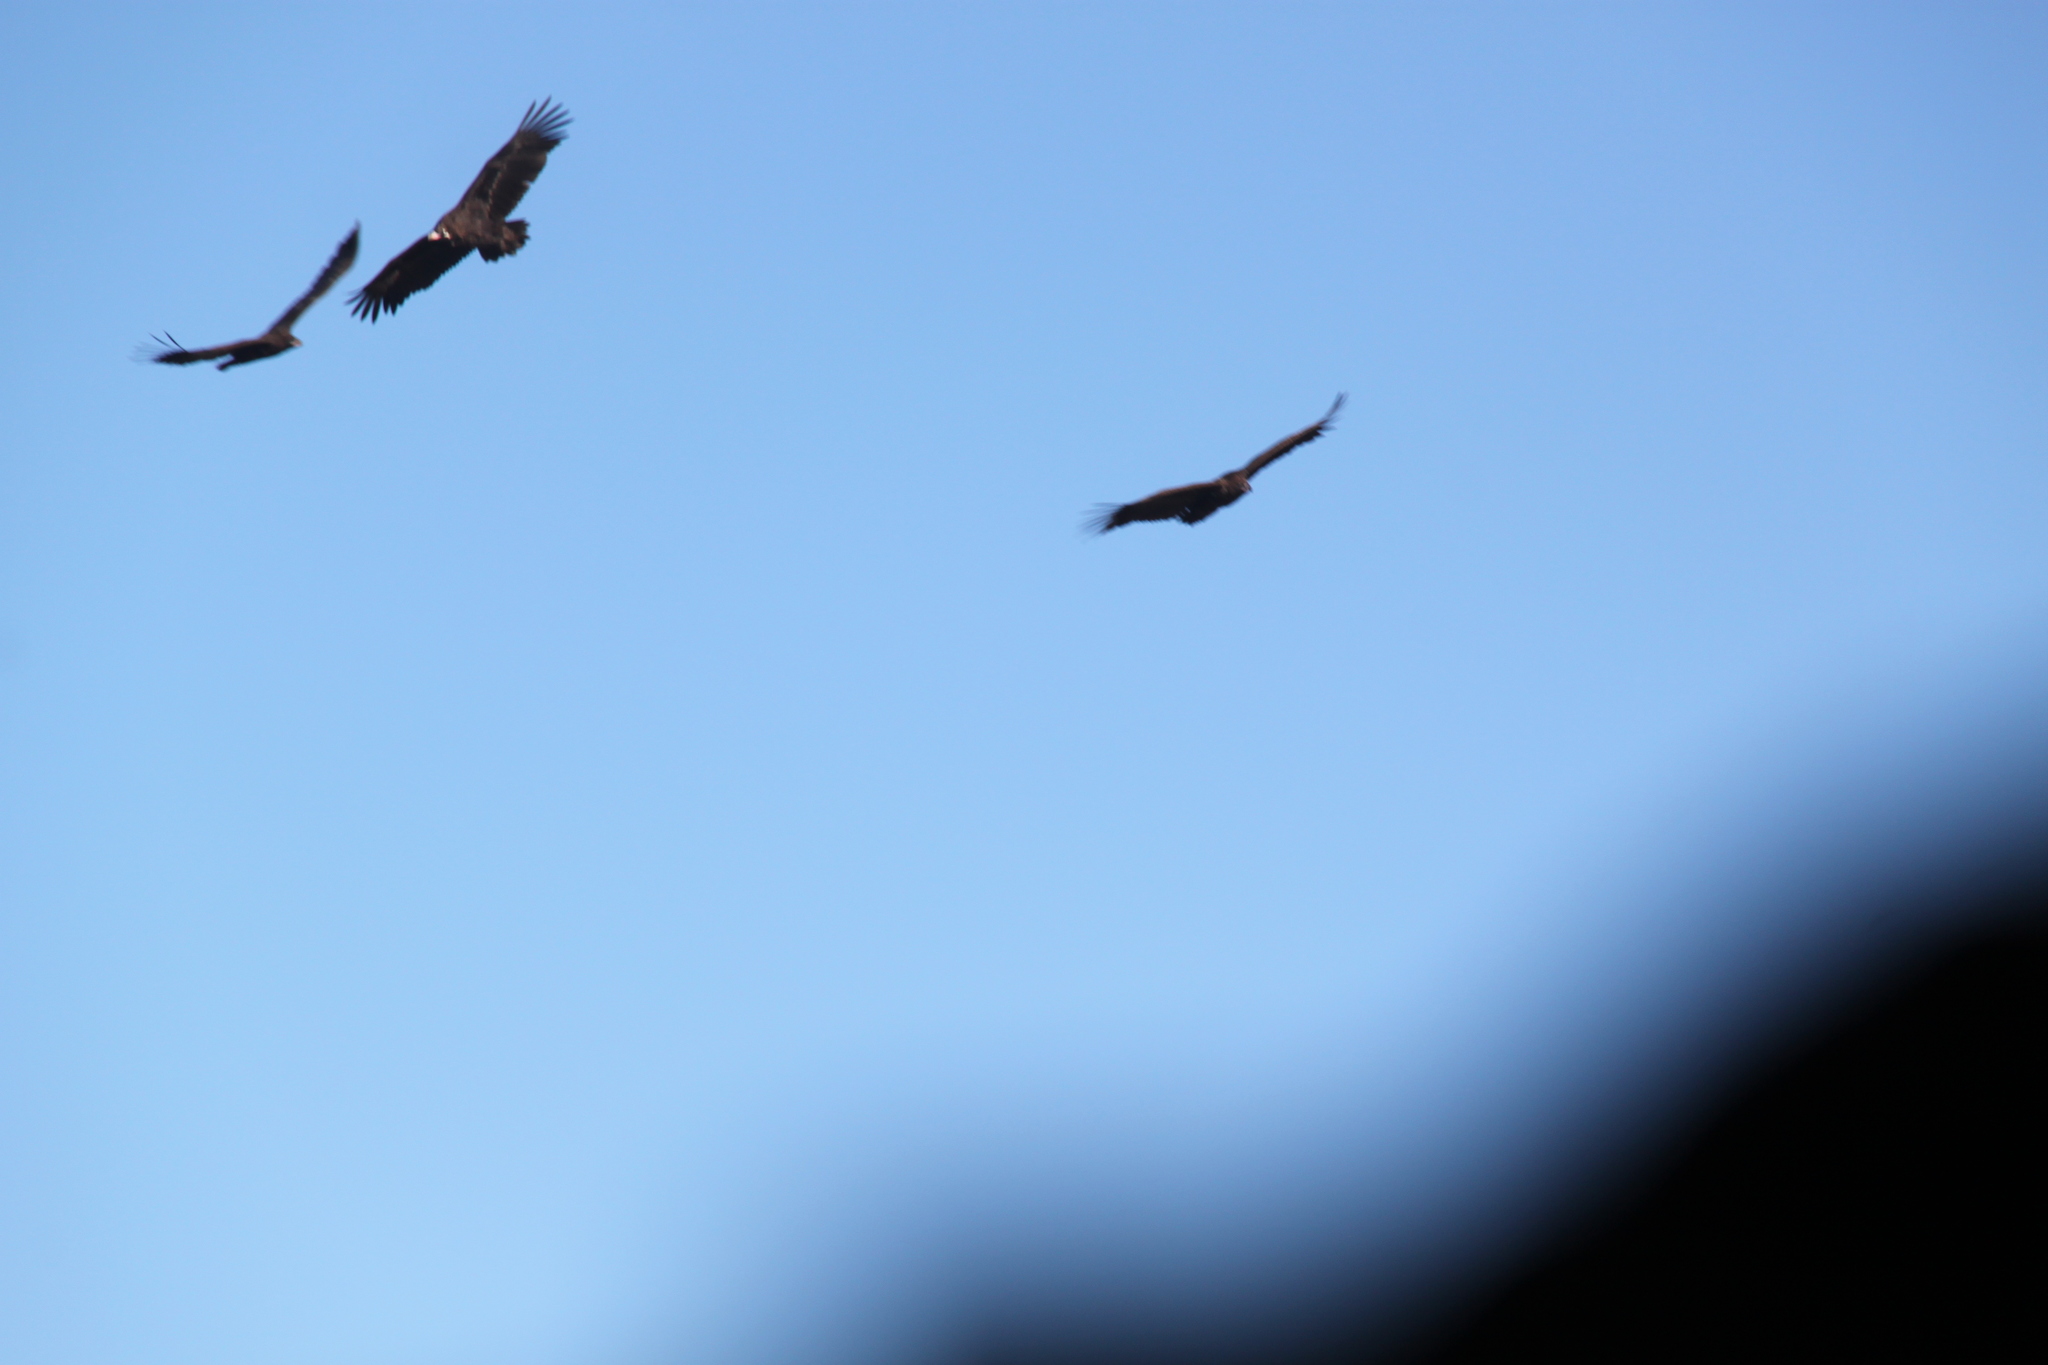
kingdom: Animalia
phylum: Chordata
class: Aves
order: Accipitriformes
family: Accipitridae
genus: Aegypius
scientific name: Aegypius monachus
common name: Cinereous vulture
